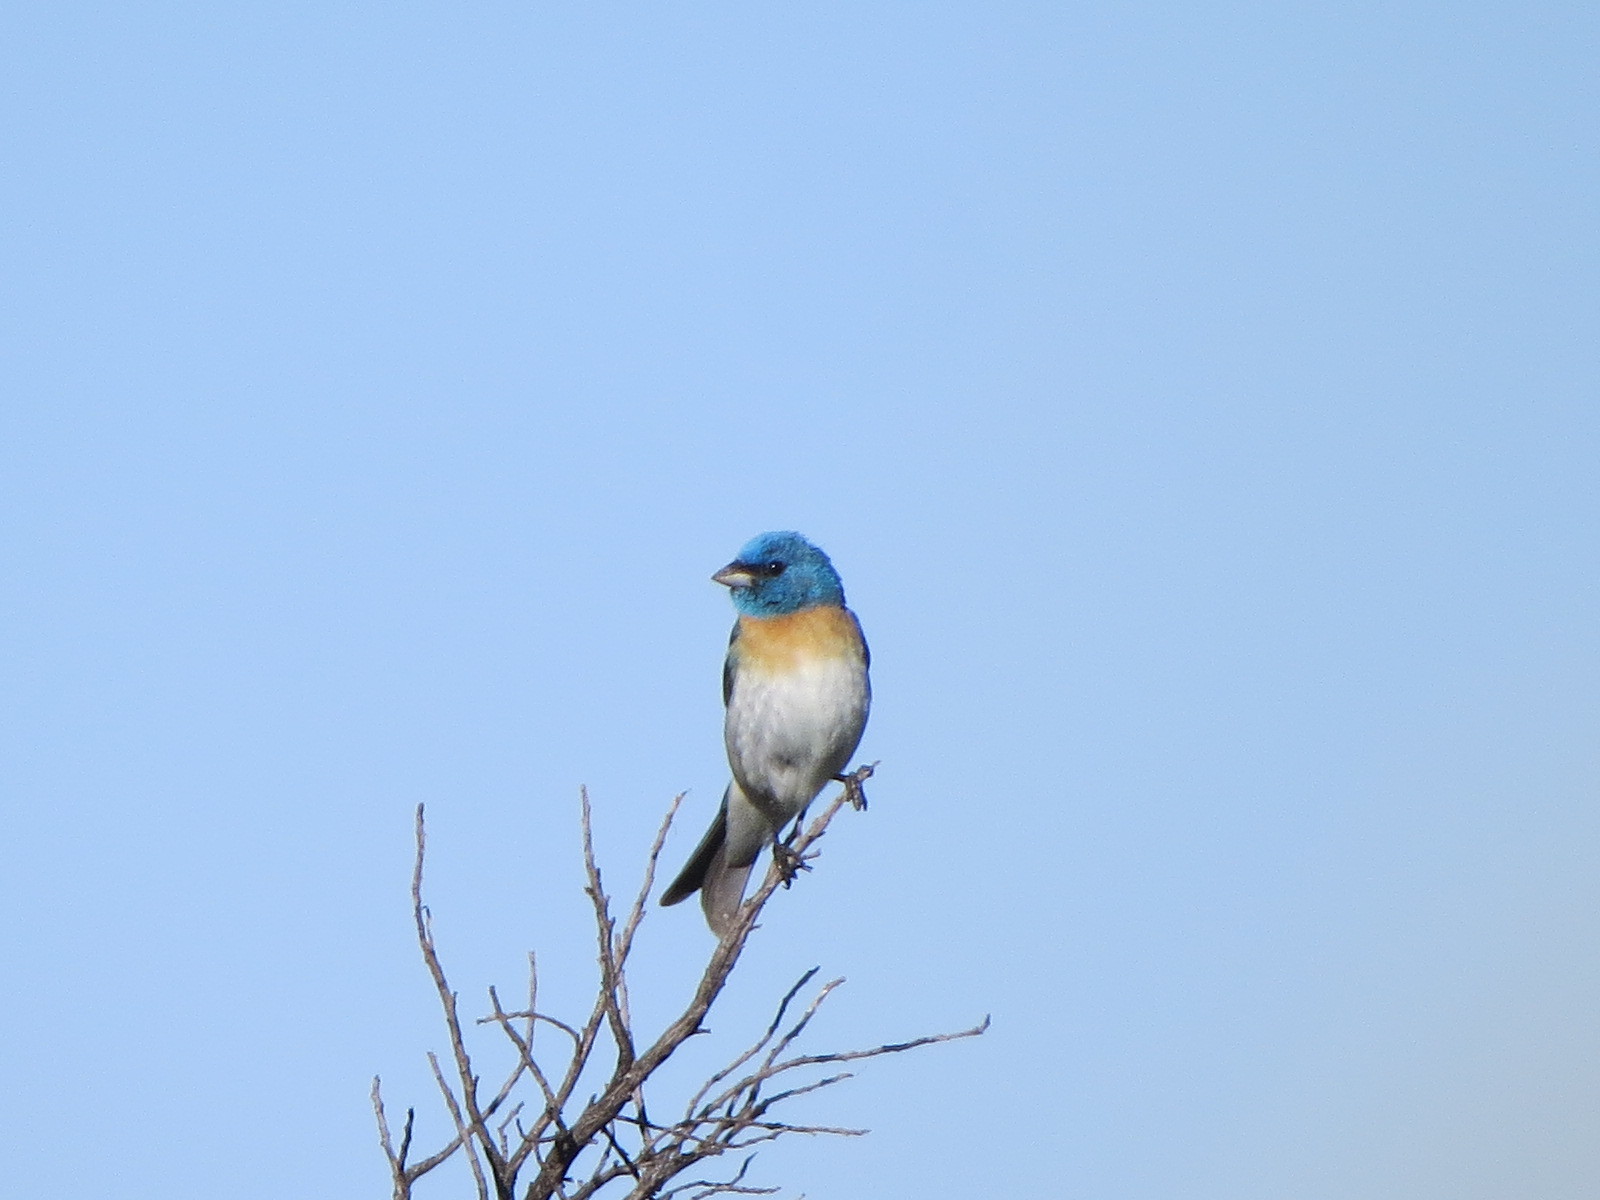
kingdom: Animalia
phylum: Chordata
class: Aves
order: Passeriformes
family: Cardinalidae
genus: Passerina
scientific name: Passerina amoena
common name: Lazuli bunting
